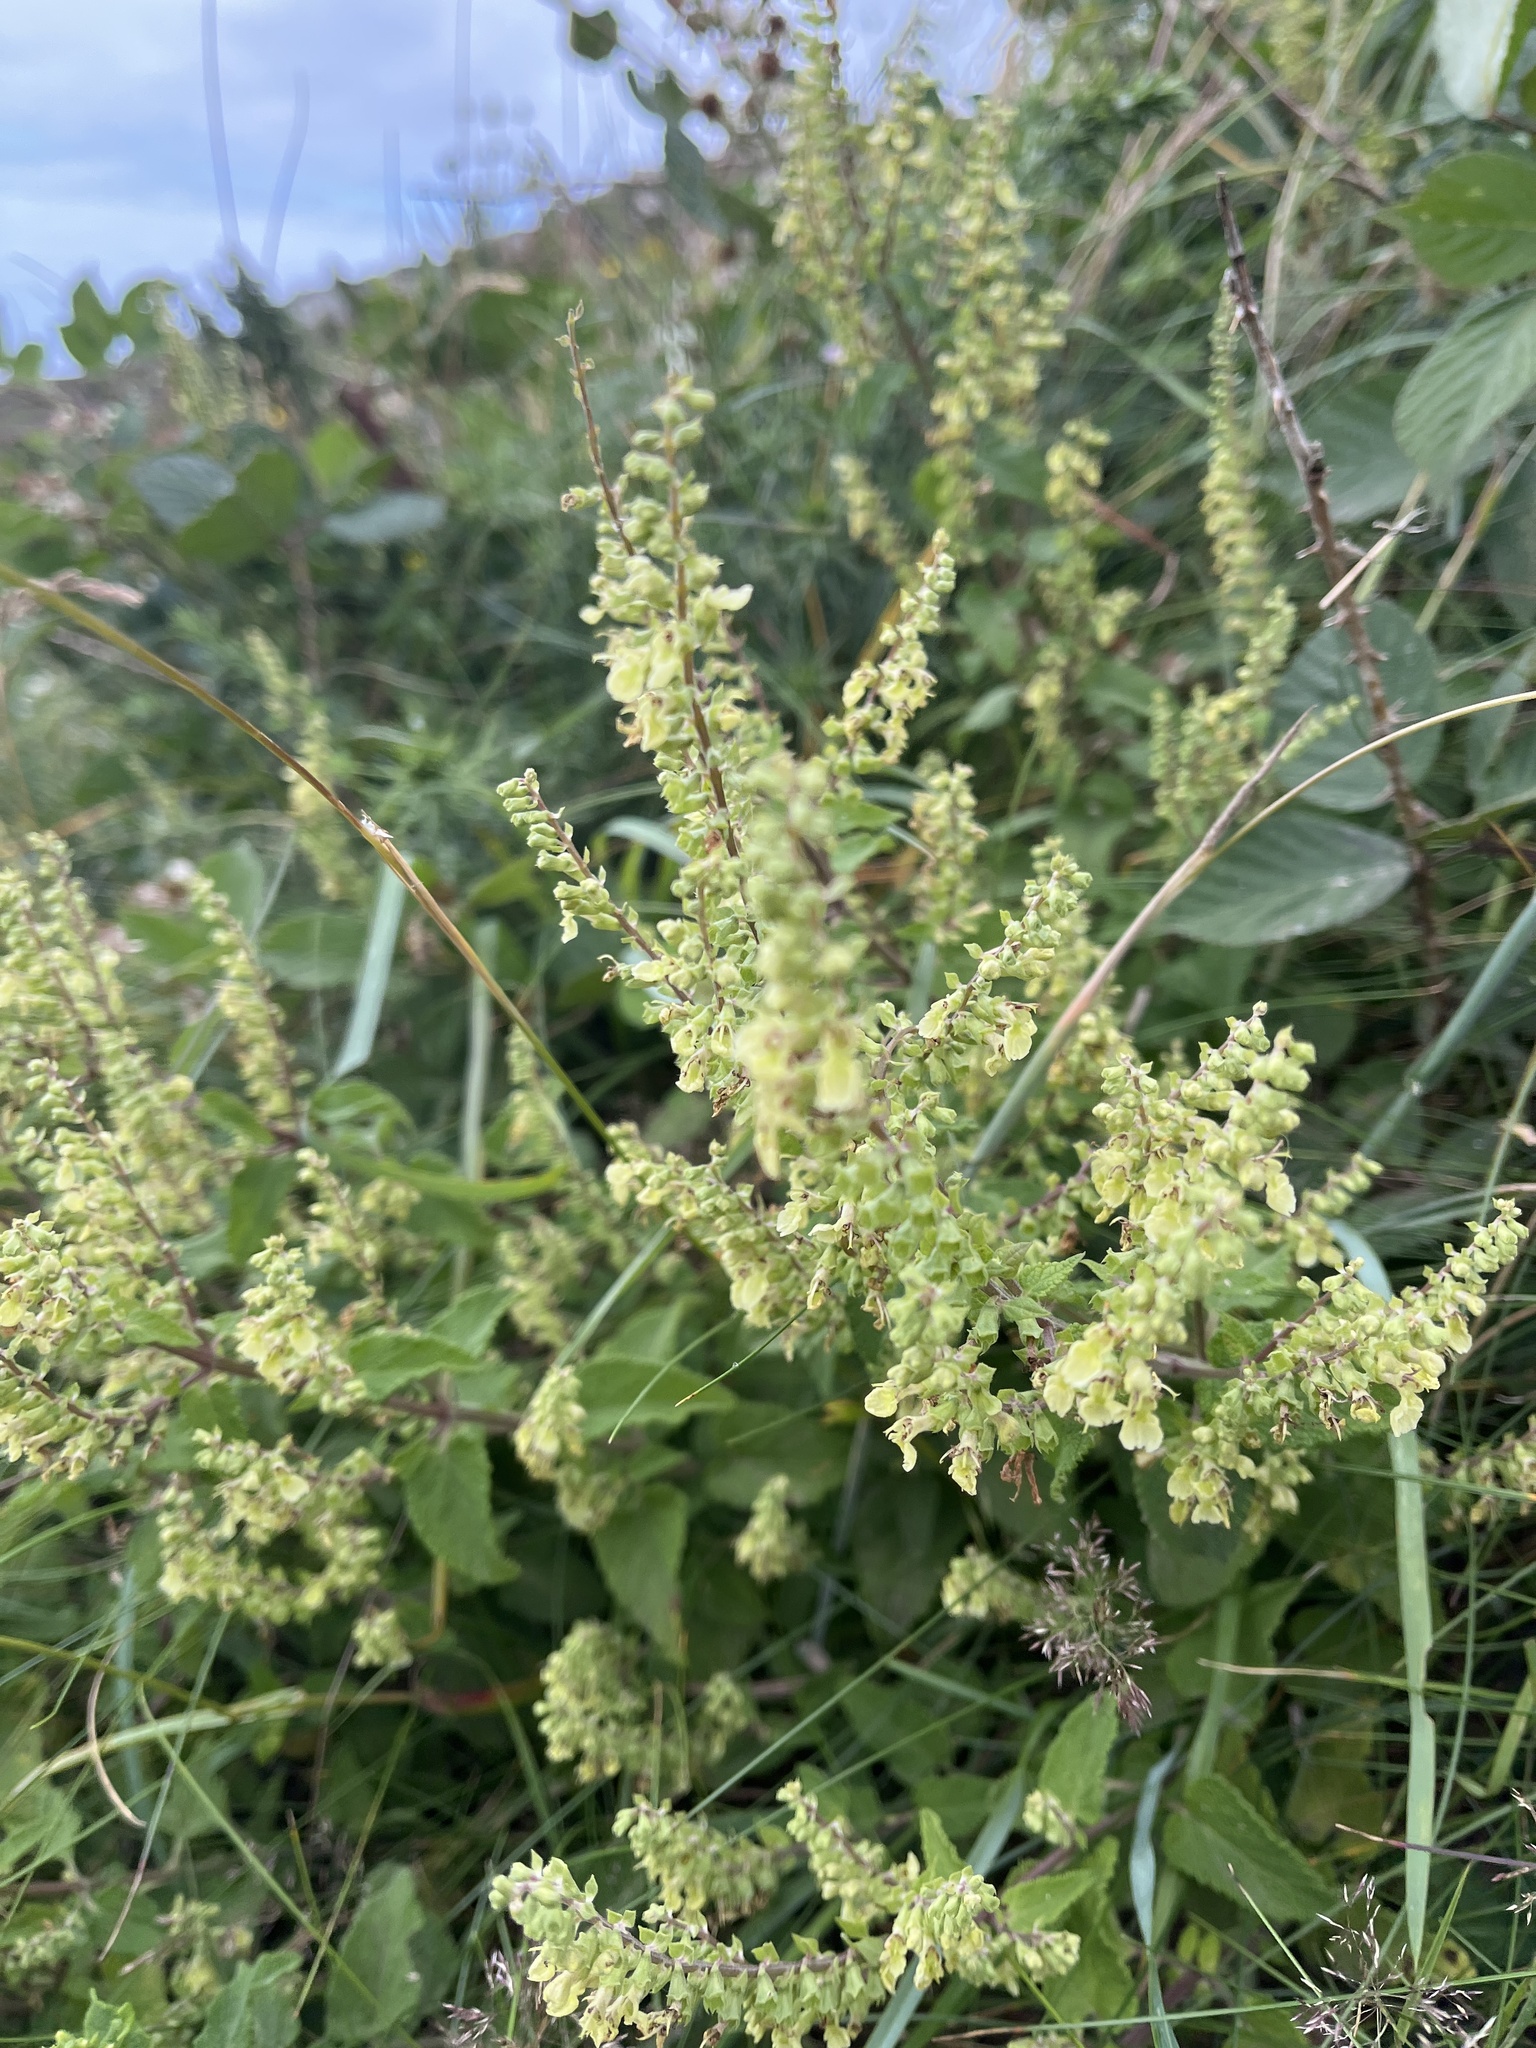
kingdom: Plantae
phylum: Tracheophyta
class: Magnoliopsida
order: Lamiales
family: Lamiaceae
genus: Teucrium
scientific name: Teucrium scorodonia
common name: Woodland germander
